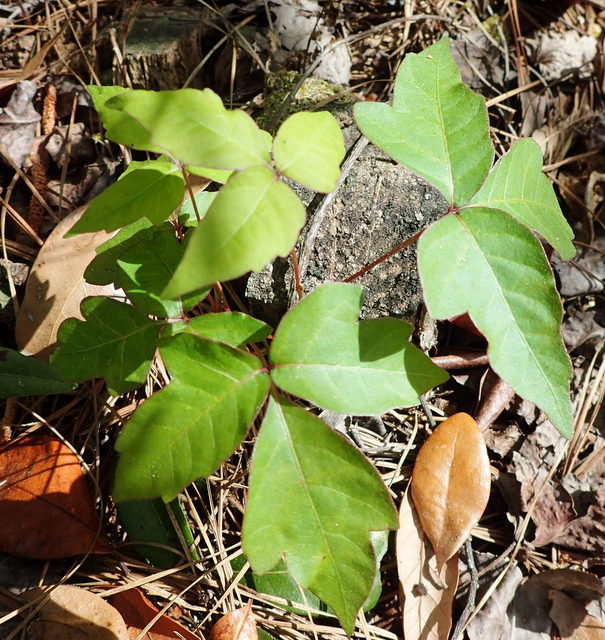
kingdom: Plantae
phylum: Tracheophyta
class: Magnoliopsida
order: Sapindales
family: Anacardiaceae
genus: Toxicodendron
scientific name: Toxicodendron radicans
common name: Poison ivy
